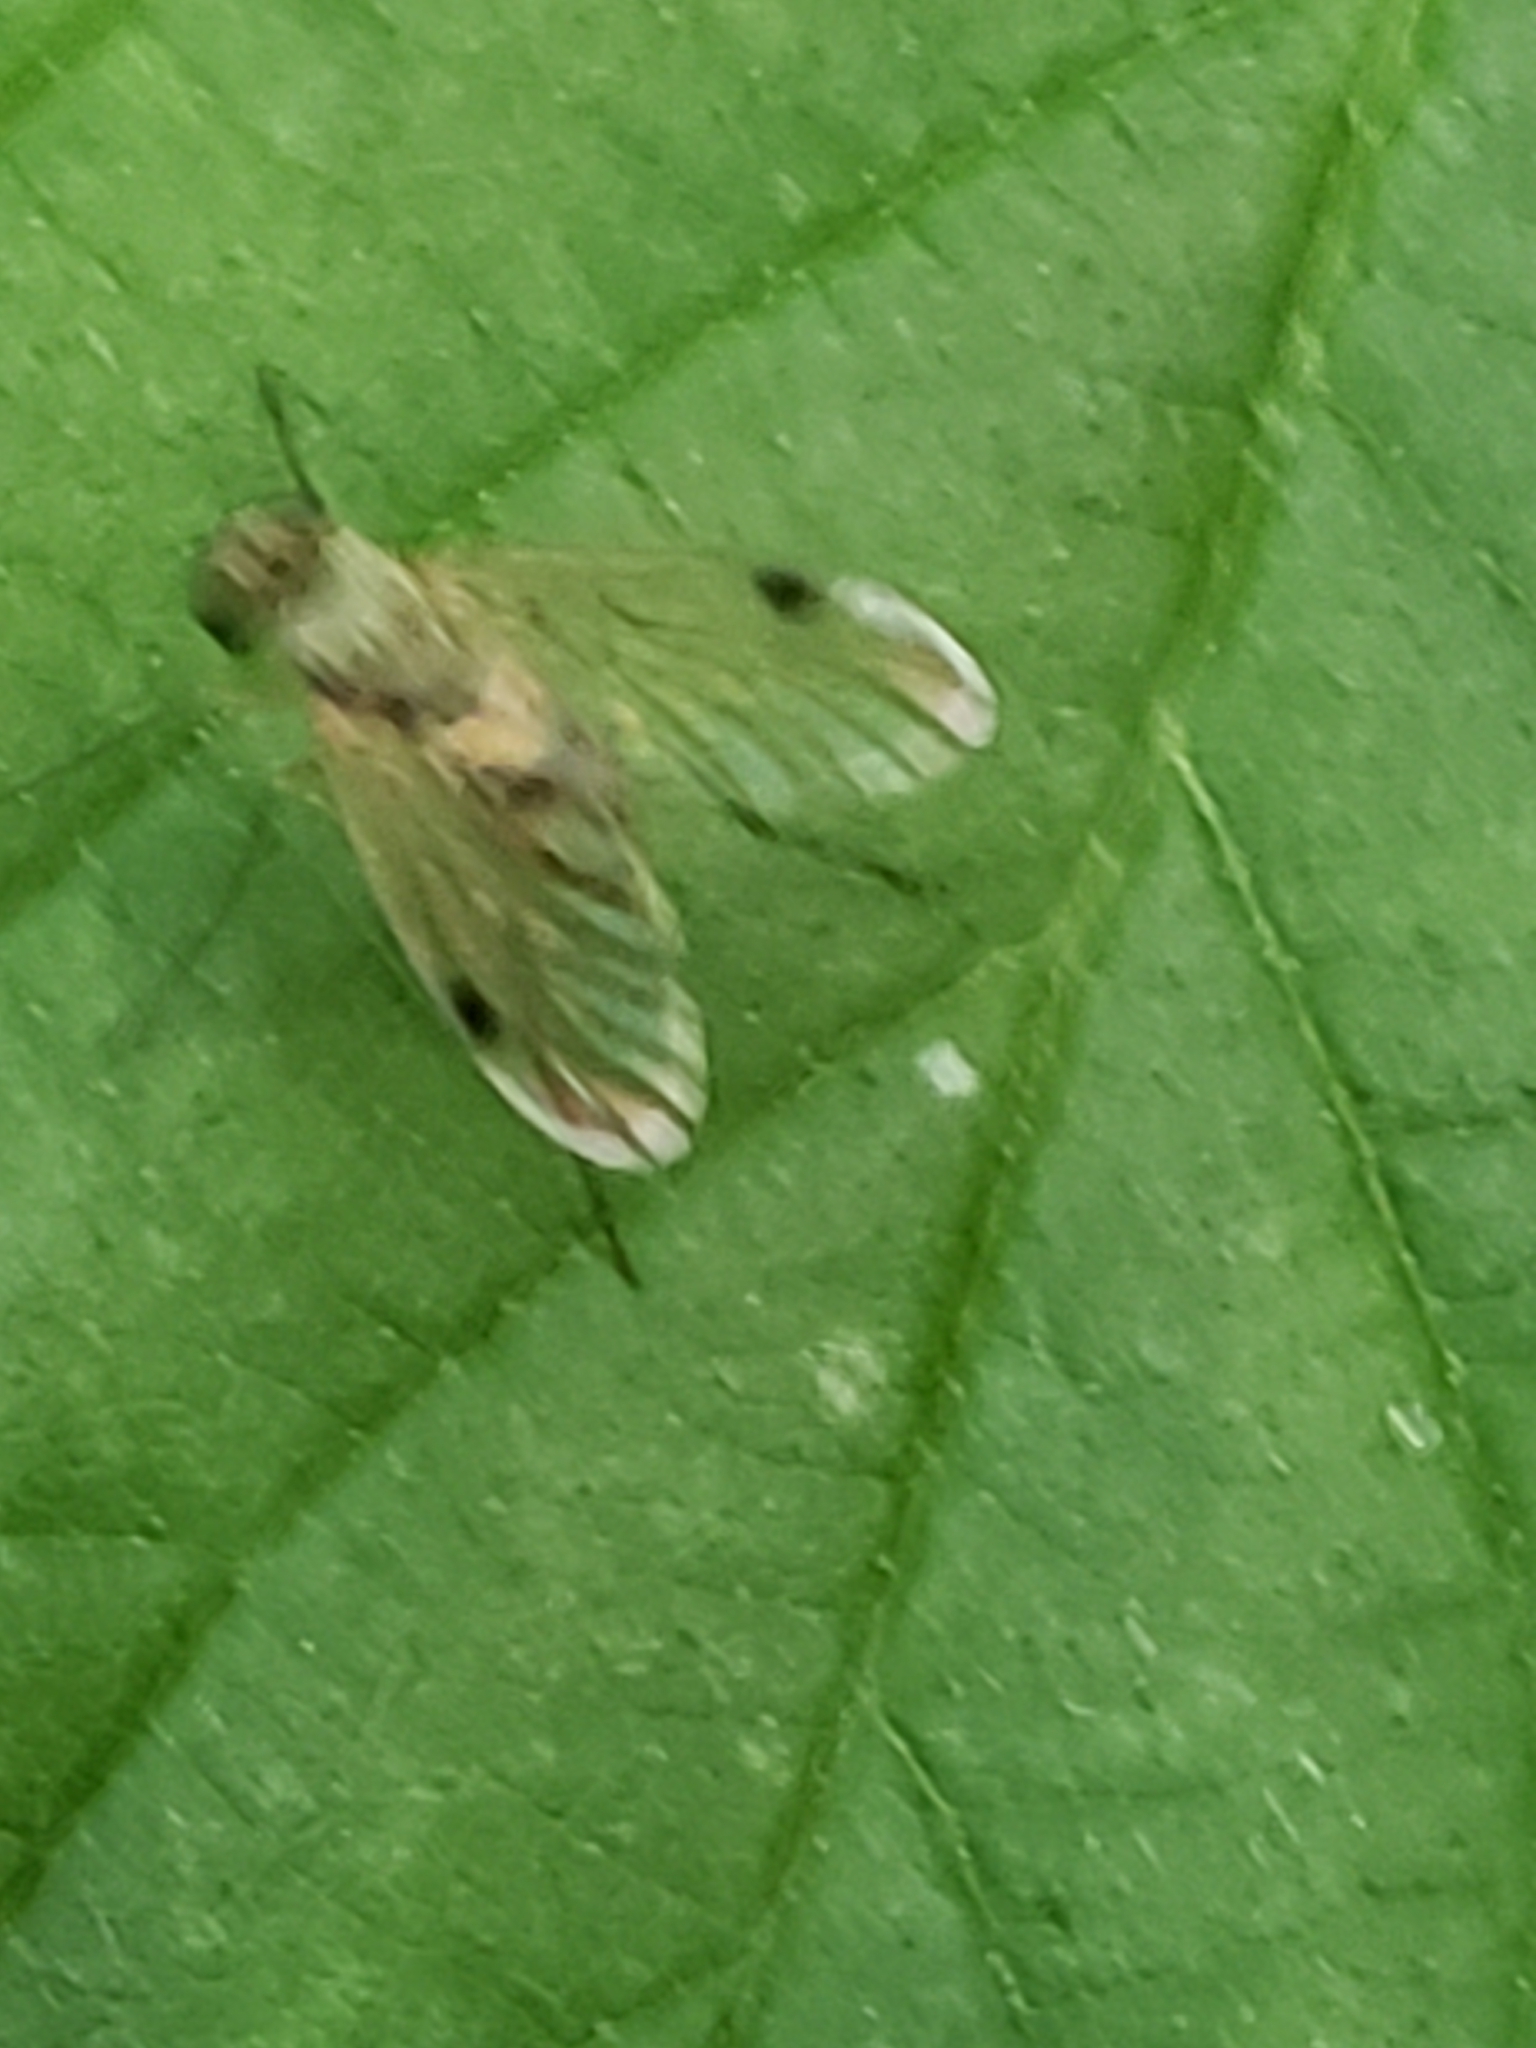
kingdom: Animalia
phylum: Arthropoda
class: Insecta
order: Diptera
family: Rhagionidae
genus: Chrysopilus
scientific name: Chrysopilus modestus
